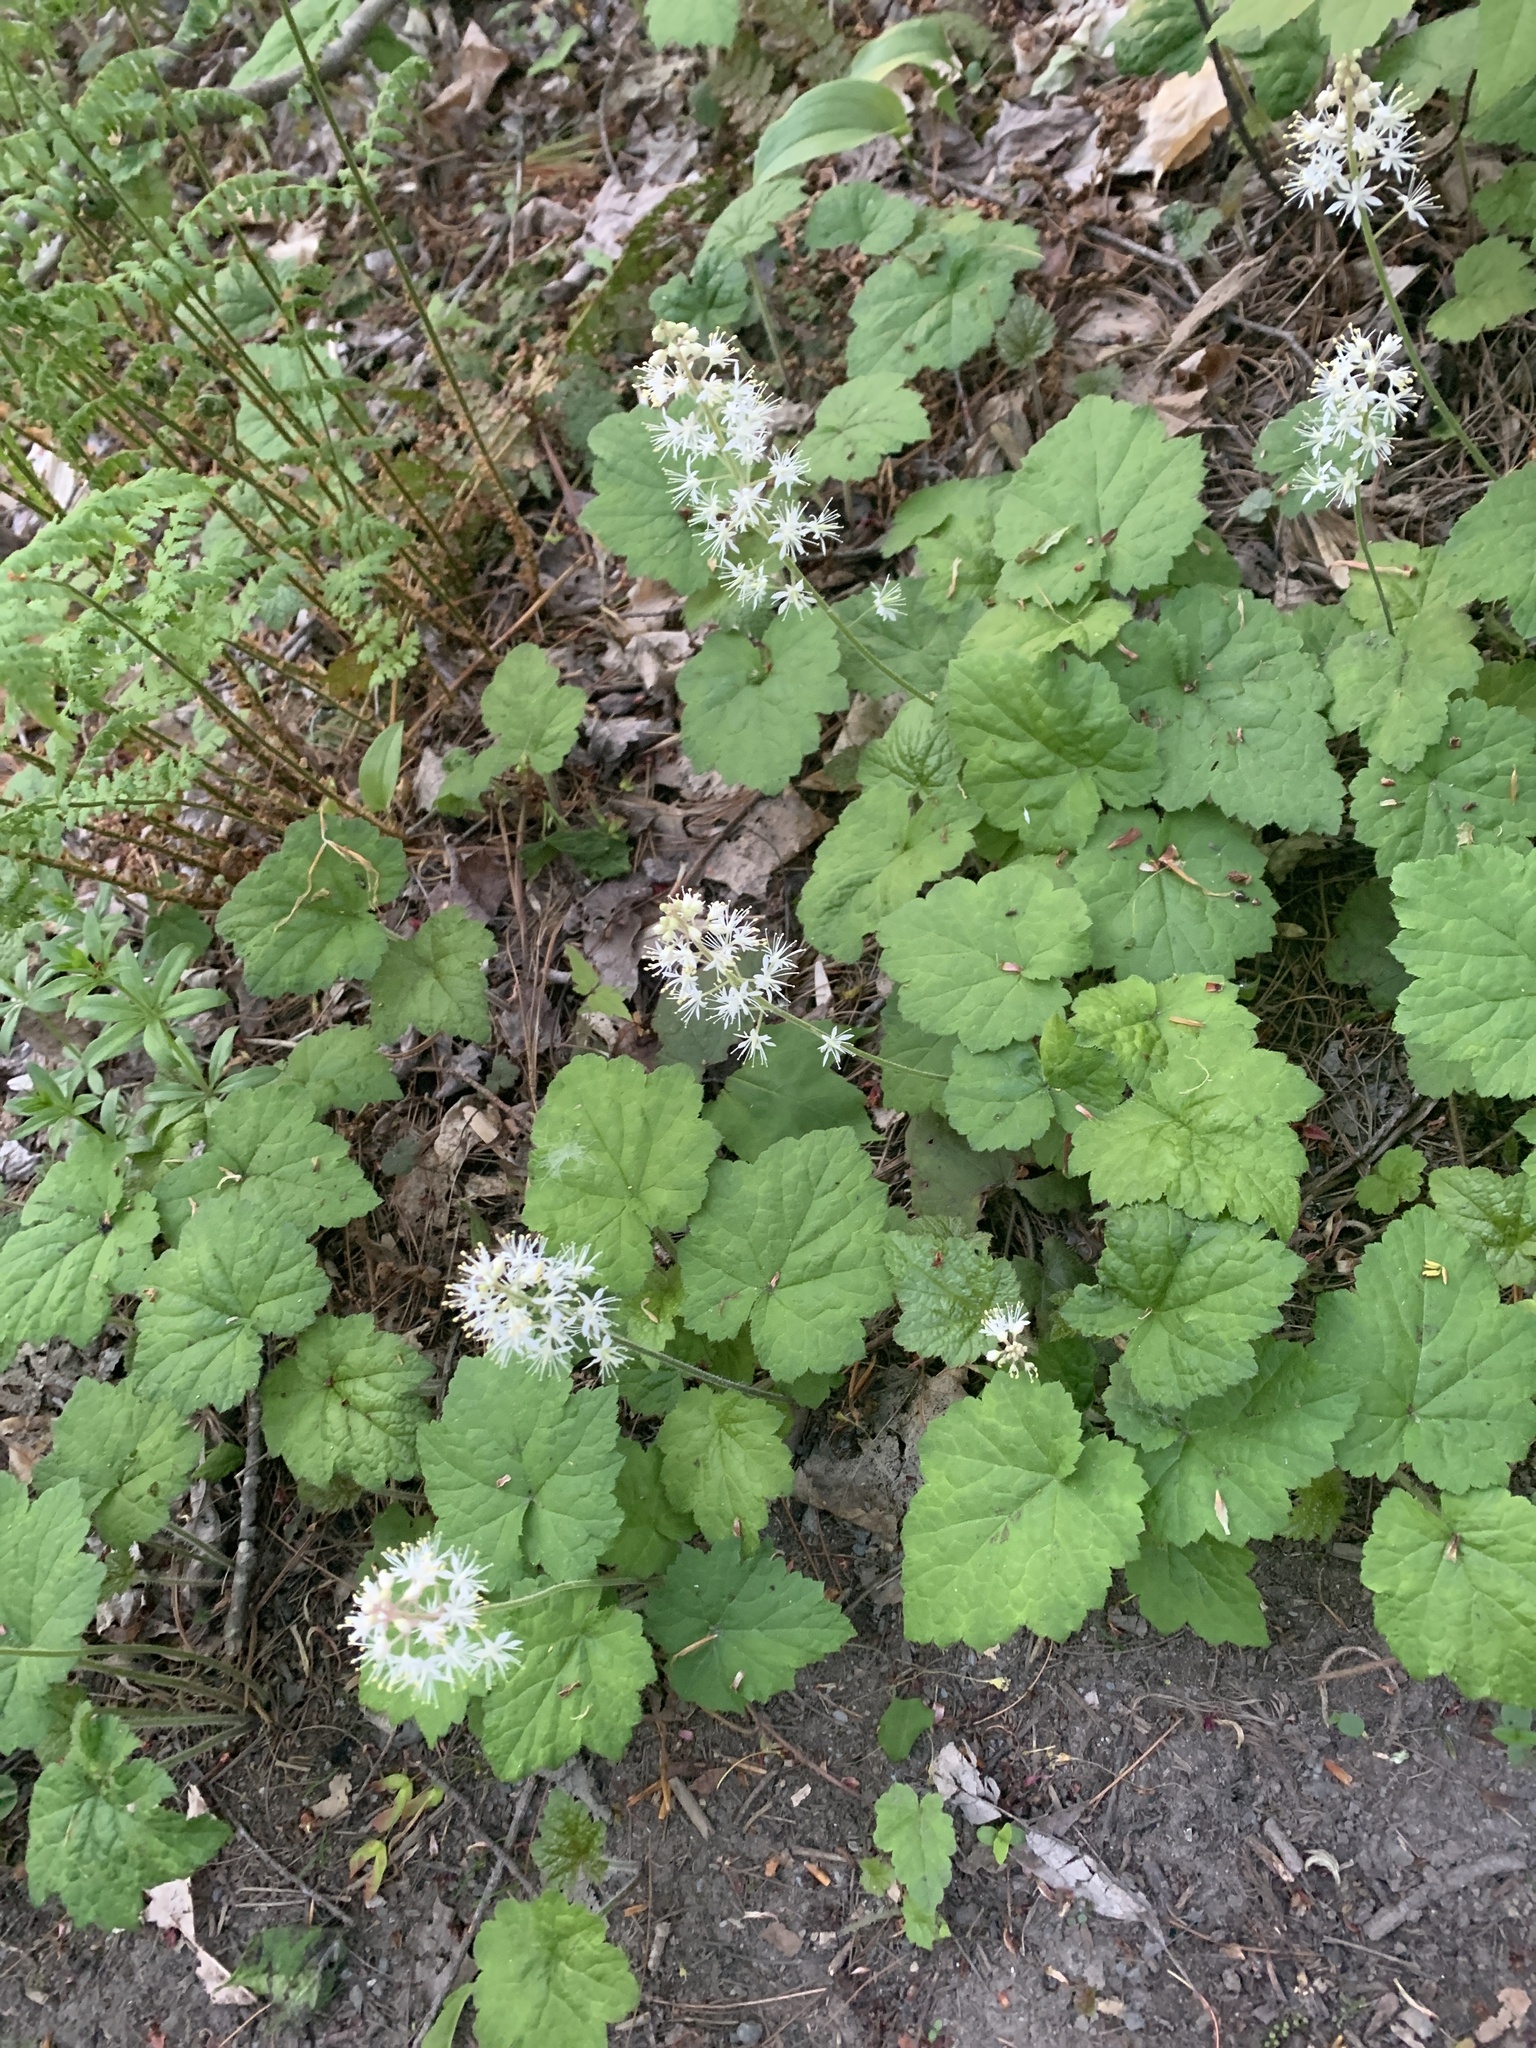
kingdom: Plantae
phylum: Tracheophyta
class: Magnoliopsida
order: Saxifragales
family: Saxifragaceae
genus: Tiarella
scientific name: Tiarella stolonifera
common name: Stoloniferous foamflower
